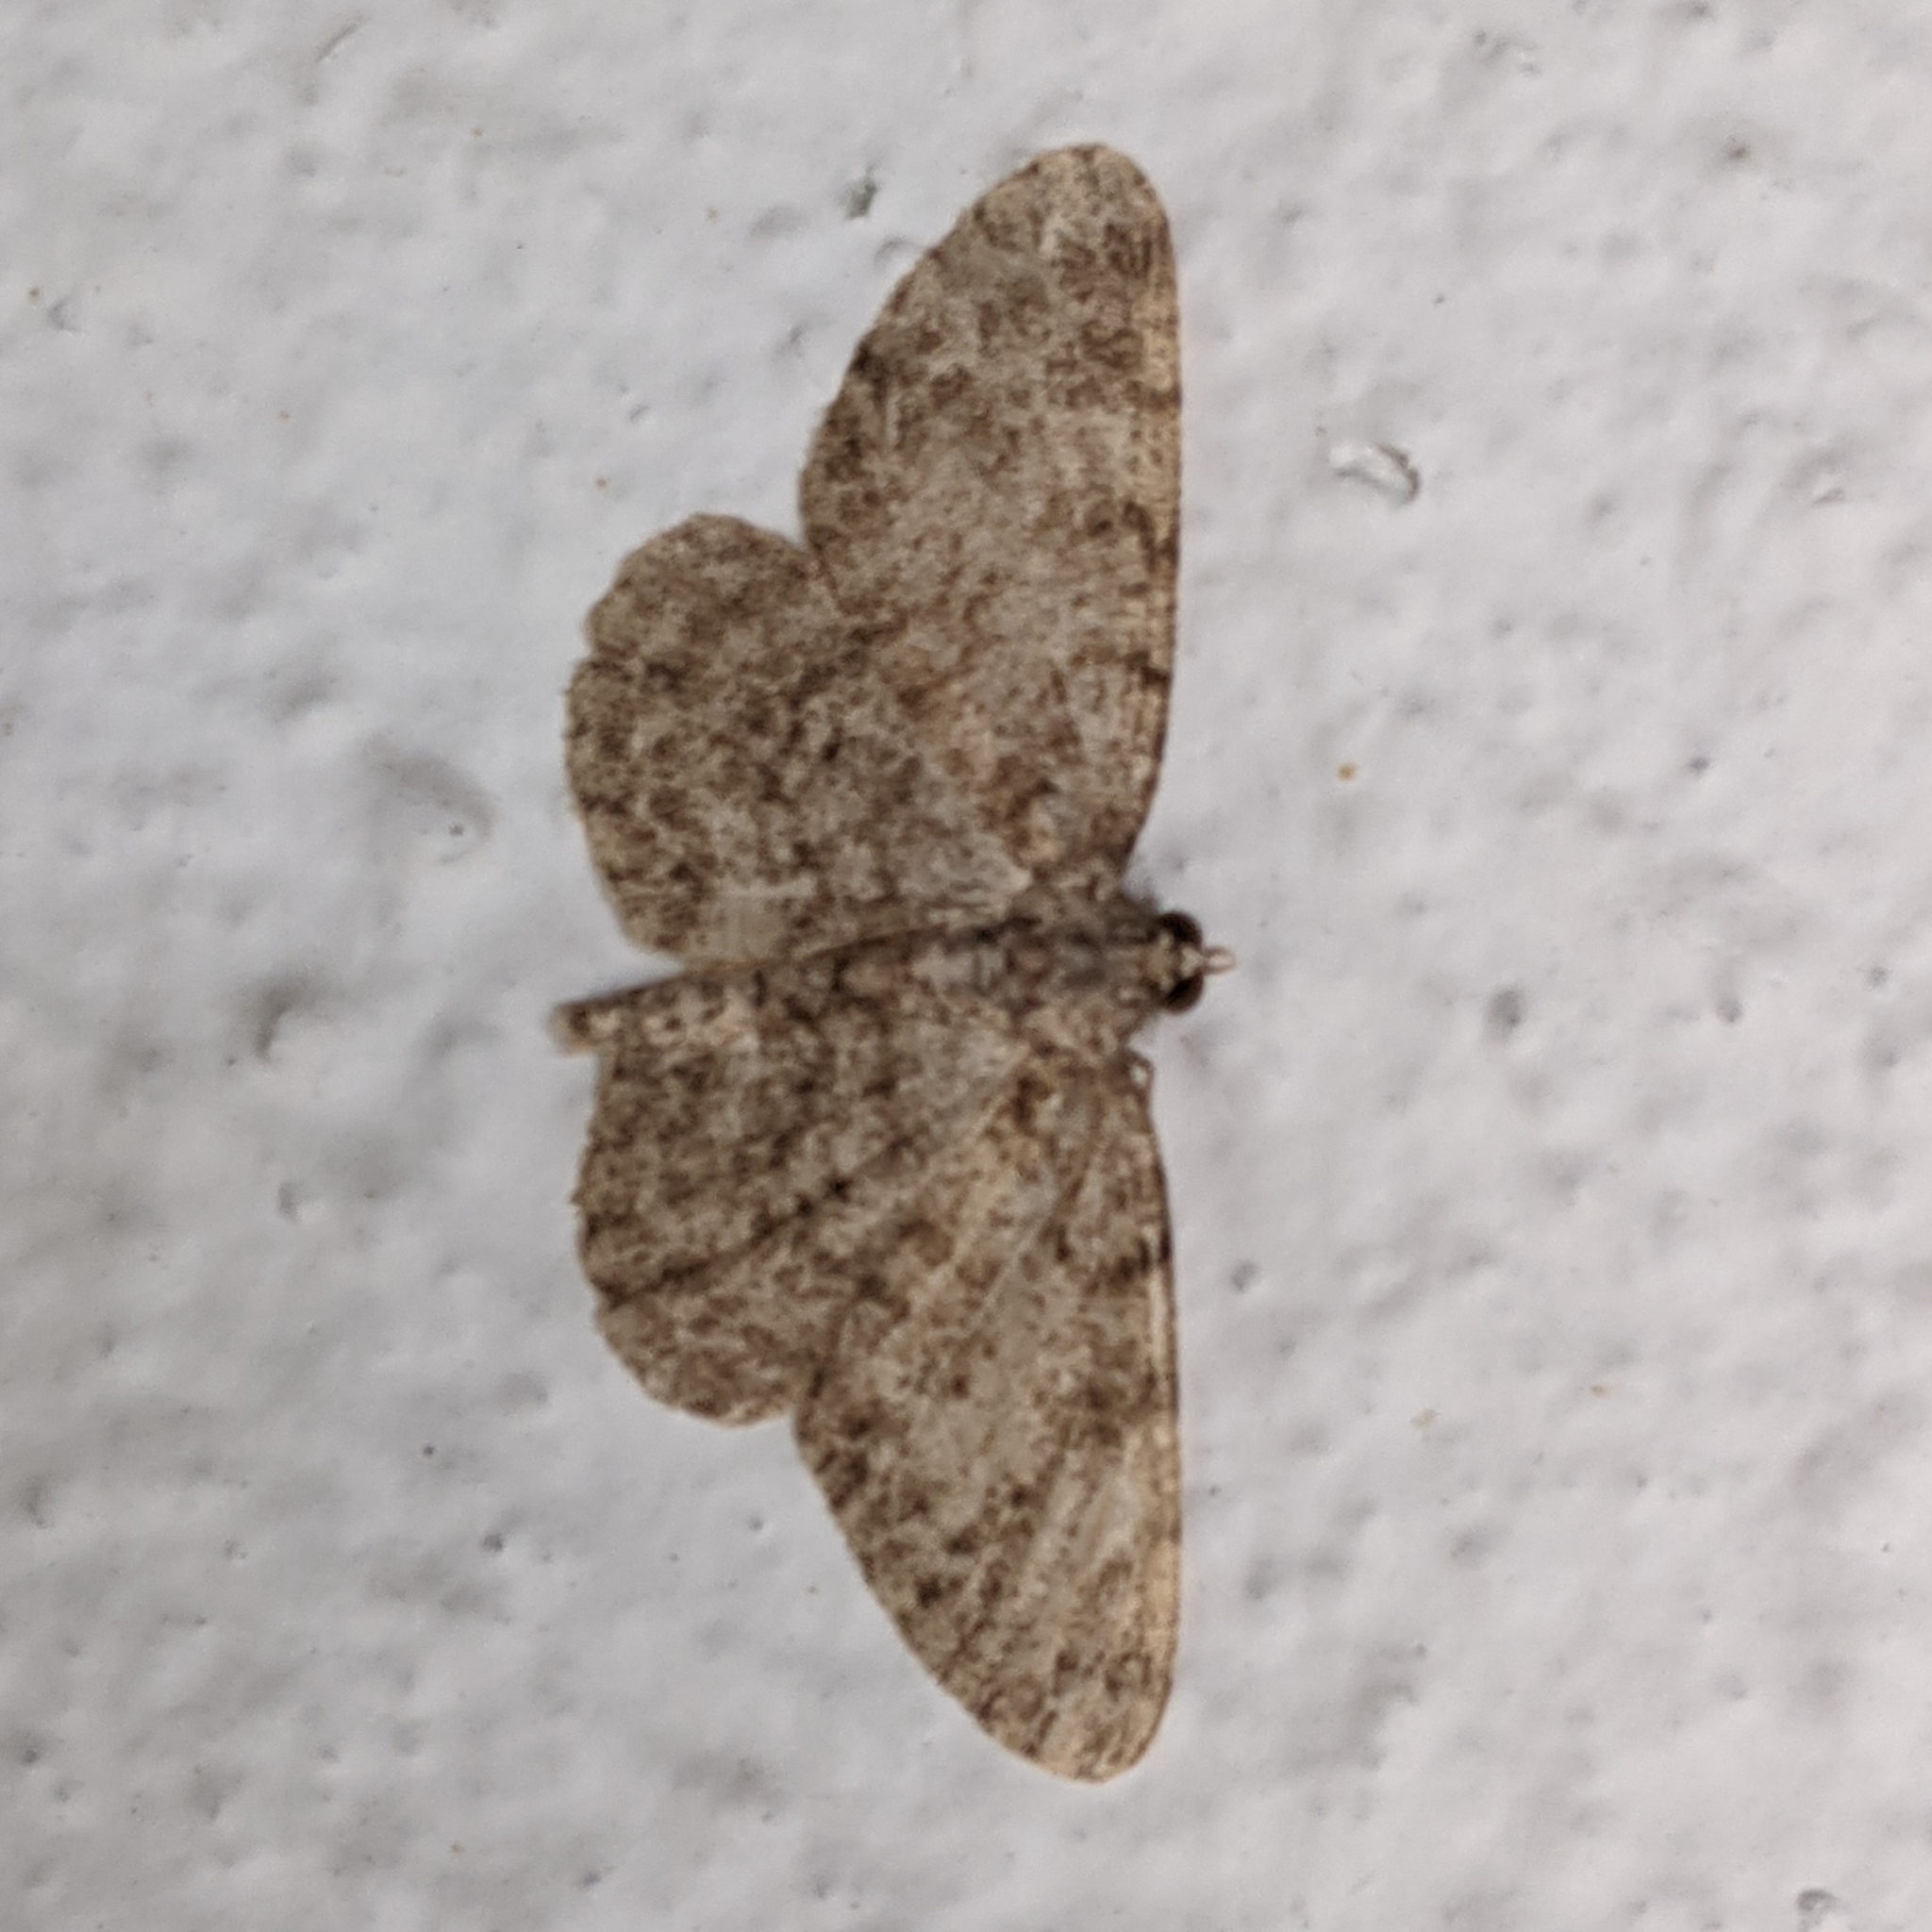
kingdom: Animalia
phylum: Arthropoda
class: Insecta
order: Lepidoptera
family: Geometridae
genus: Protoboarmia
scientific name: Protoboarmia porcelaria
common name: Porcelain gray
